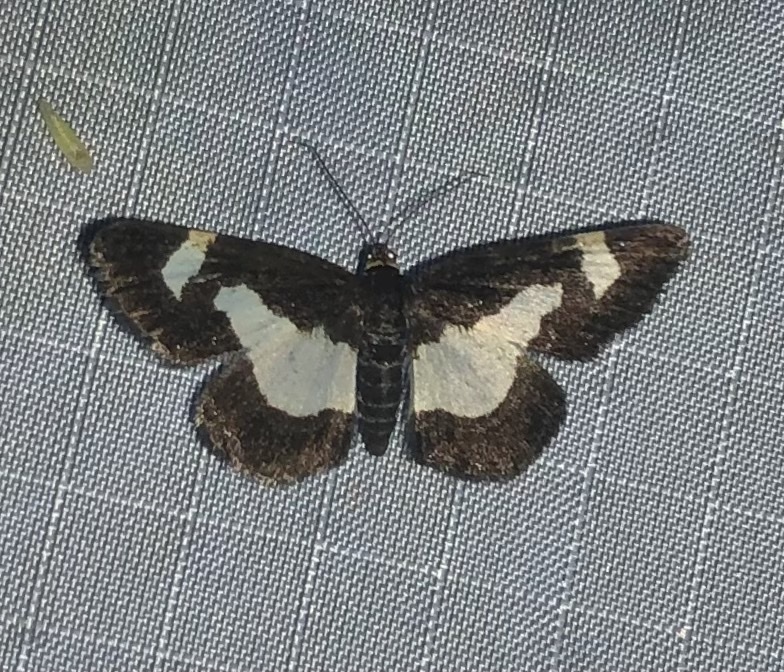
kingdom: Animalia
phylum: Arthropoda
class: Insecta
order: Lepidoptera
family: Geometridae
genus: Heliomata
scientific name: Heliomata cycladata
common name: Common spring moth
